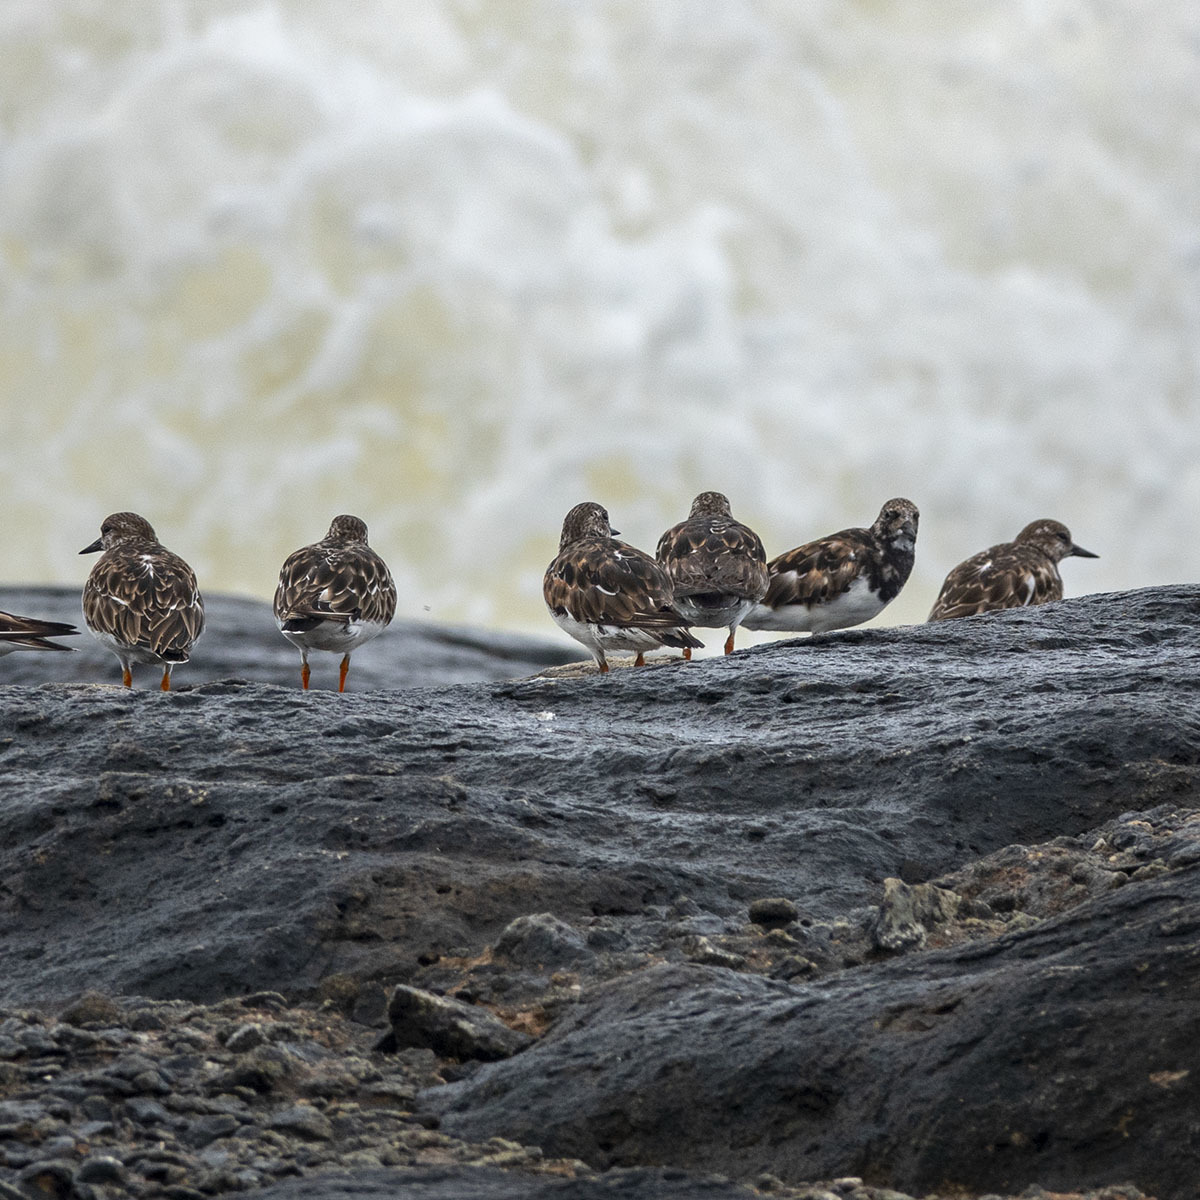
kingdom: Animalia
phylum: Chordata
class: Aves
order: Charadriiformes
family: Scolopacidae
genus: Arenaria
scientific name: Arenaria interpres
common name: Ruddy turnstone
